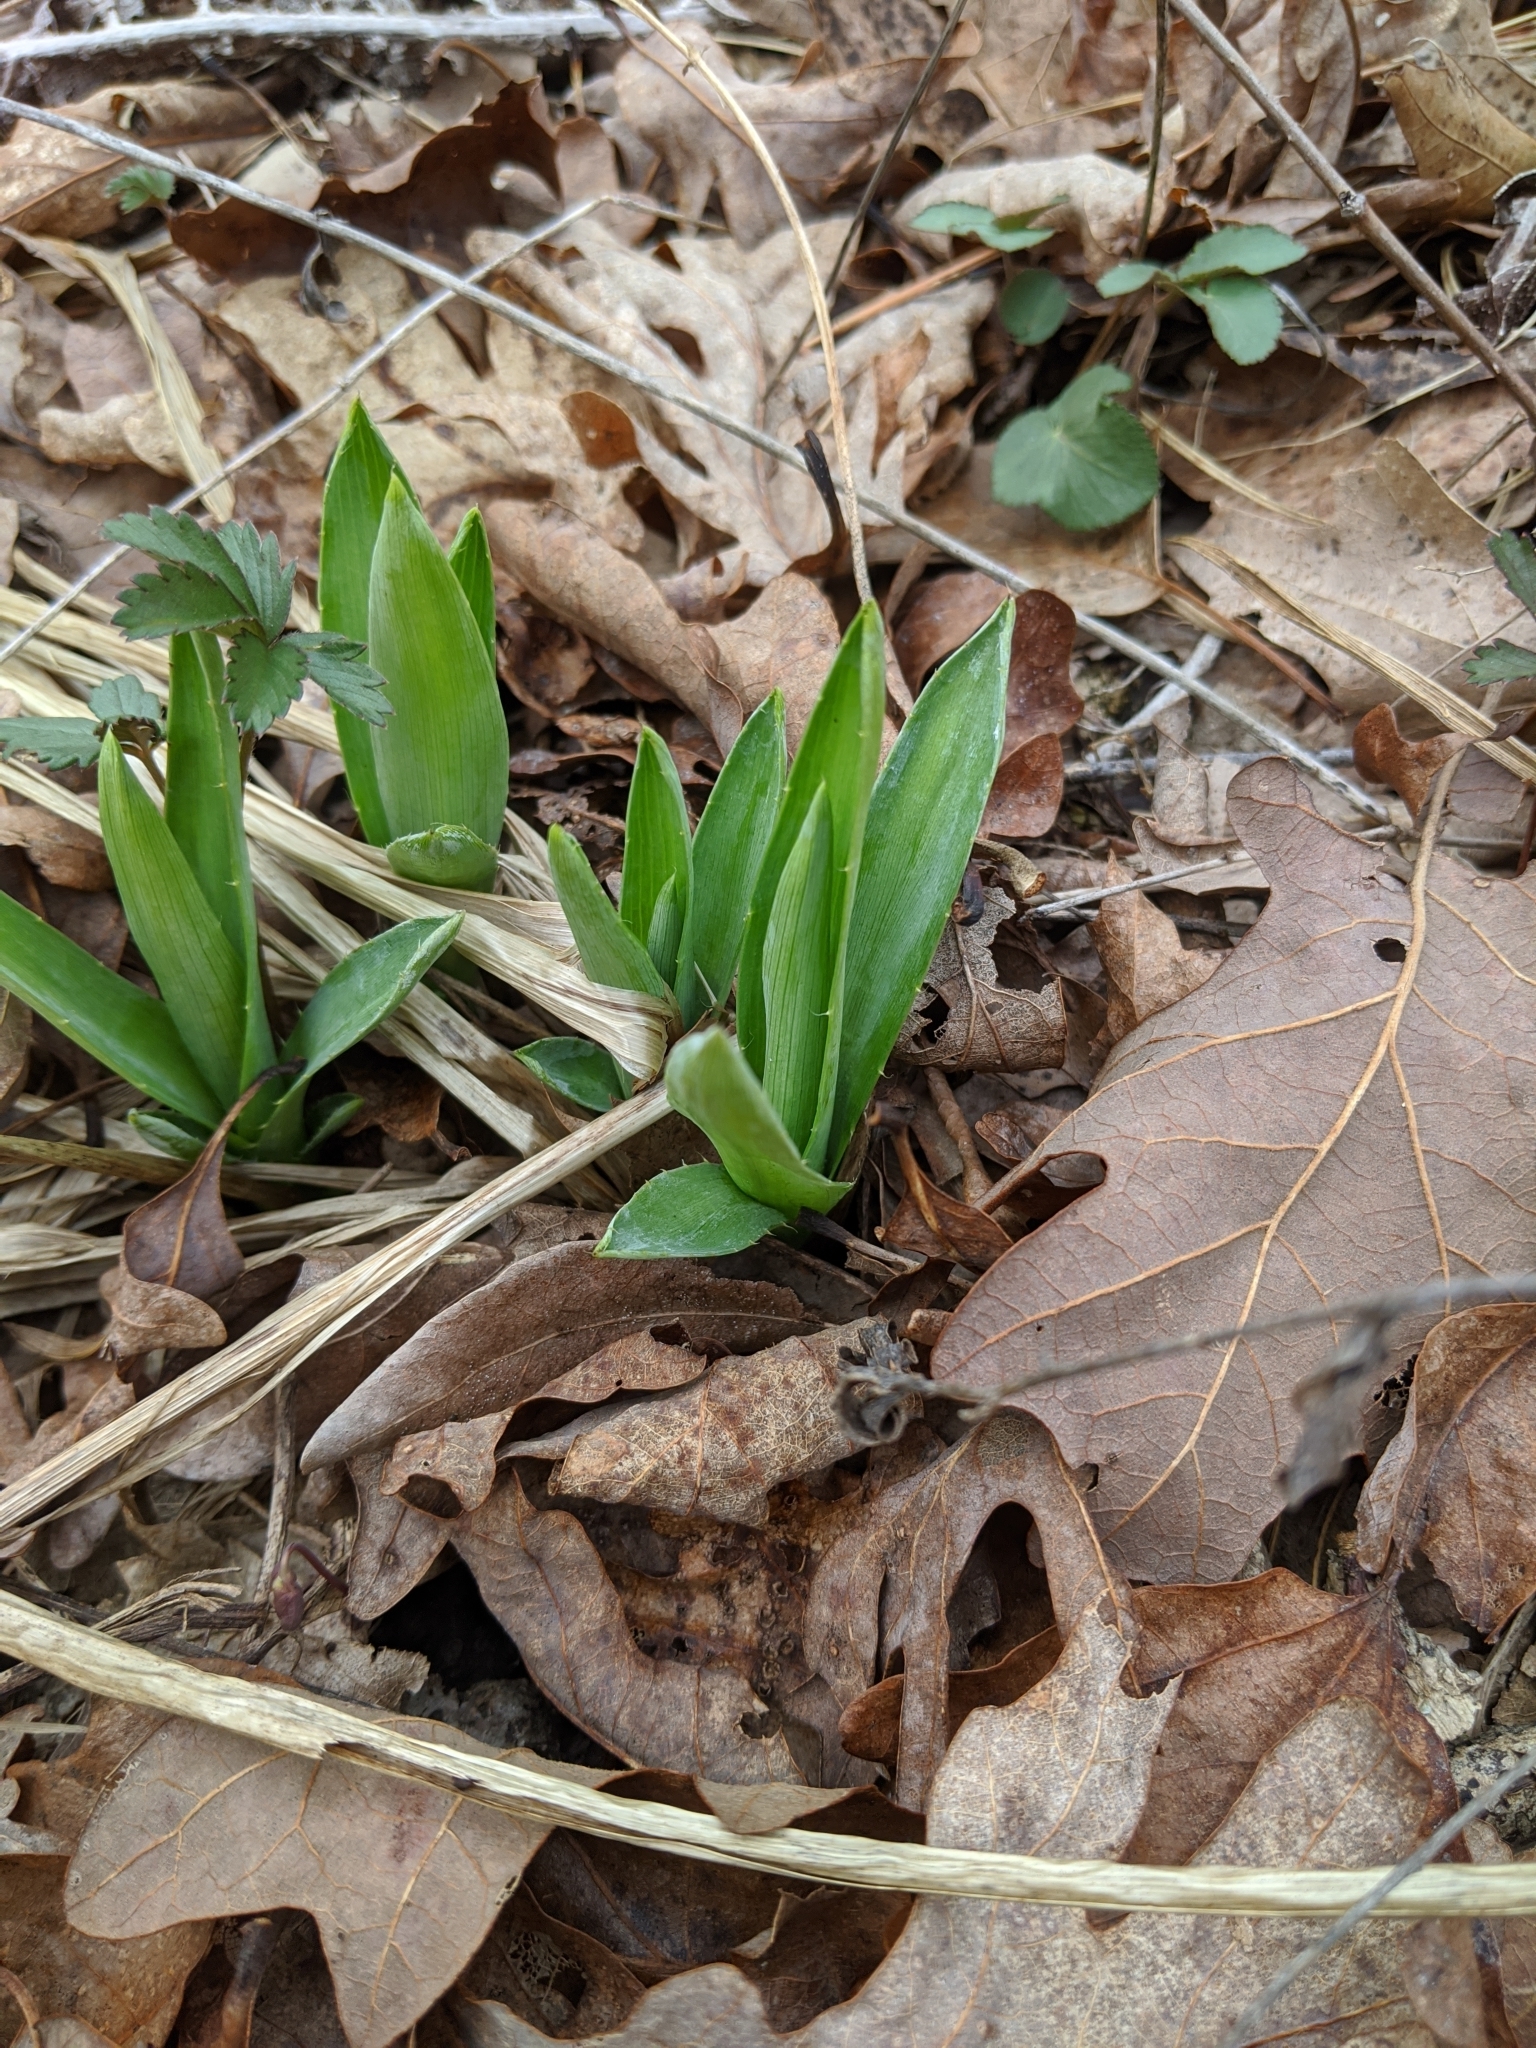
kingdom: Plantae
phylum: Tracheophyta
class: Magnoliopsida
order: Apiales
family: Apiaceae
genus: Eryngium
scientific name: Eryngium yuccifolium
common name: Button eryngo
